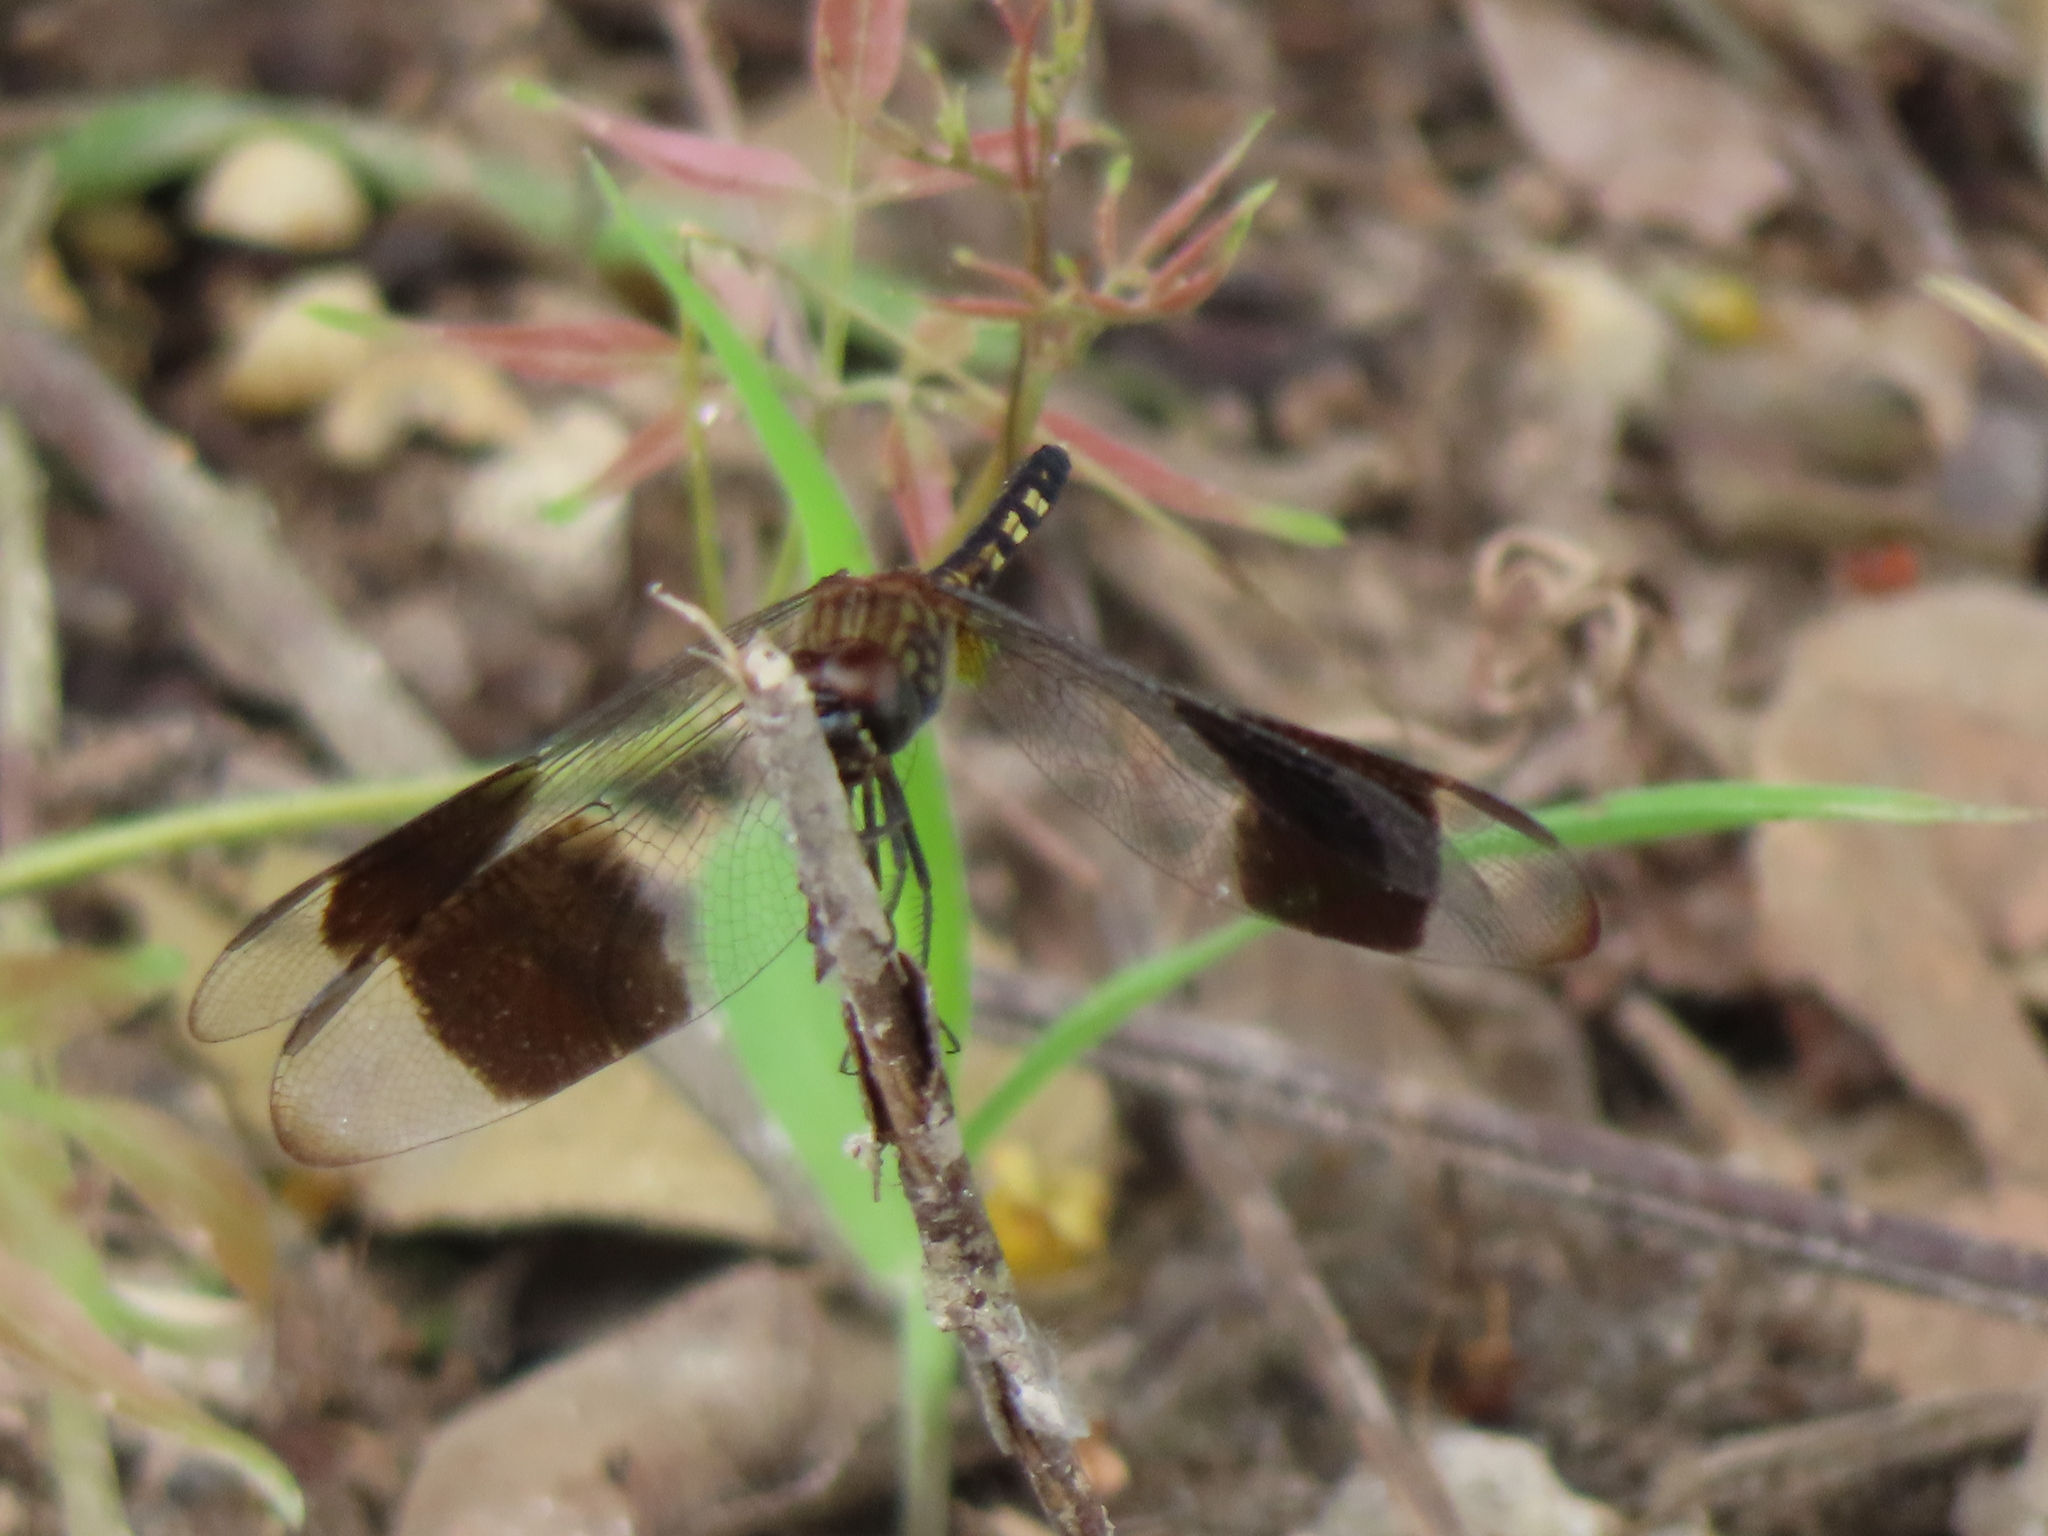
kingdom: Animalia
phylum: Arthropoda
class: Insecta
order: Odonata
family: Libellulidae
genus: Erythrodiplax
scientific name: Erythrodiplax umbrata
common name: Band-winged dragonlet
